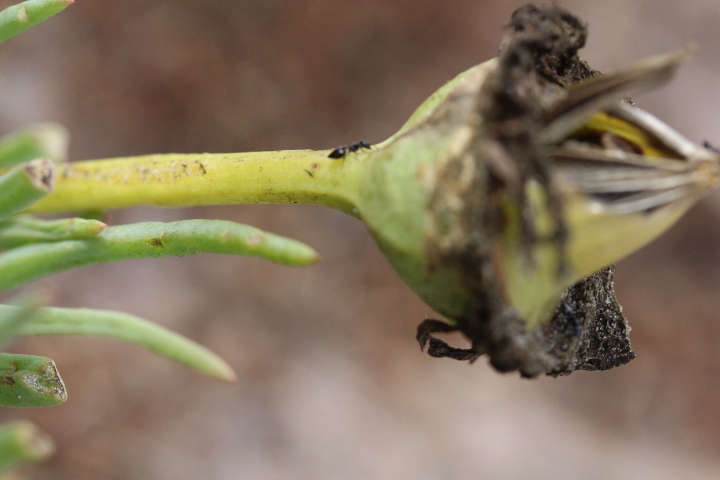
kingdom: Plantae
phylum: Tracheophyta
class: Magnoliopsida
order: Caryophyllales
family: Aizoaceae
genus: Conicosia
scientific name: Conicosia pugioniformis
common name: Narrow-leaved iceplant
